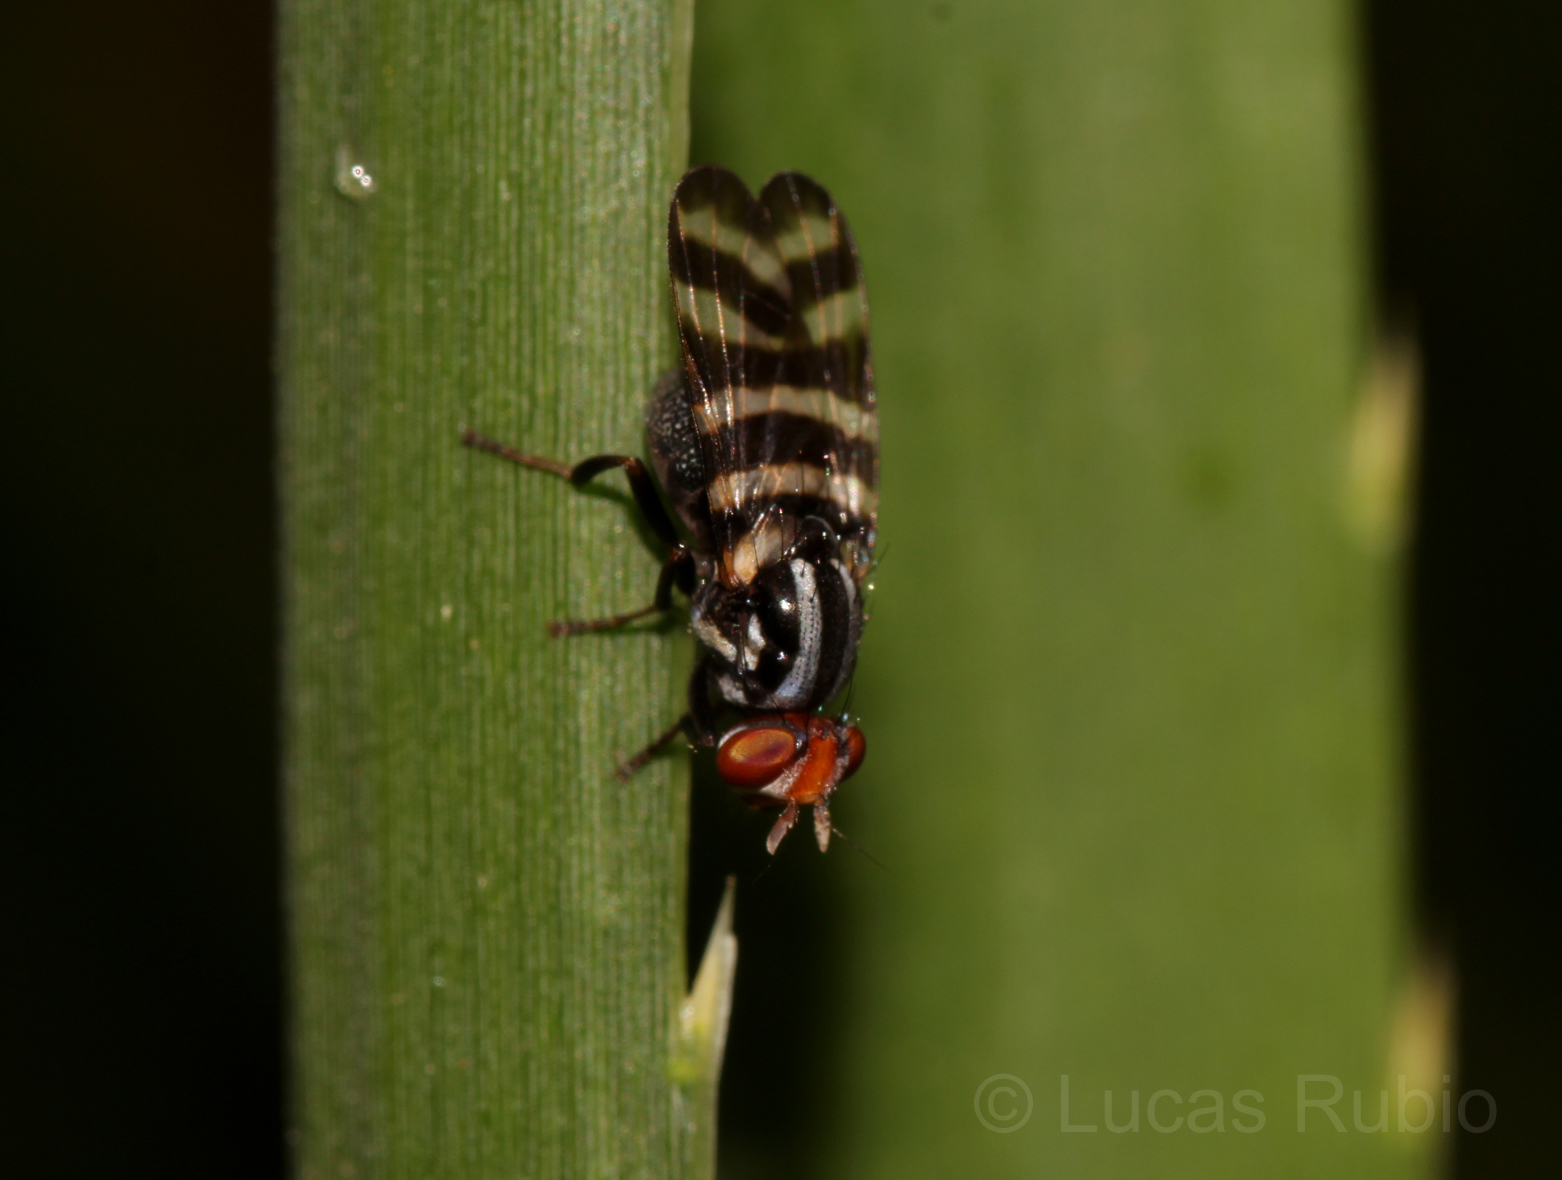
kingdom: Animalia
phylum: Arthropoda
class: Insecta
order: Diptera
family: Ulidiidae
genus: Pterotaenia
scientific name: Pterotaenia fasciata
